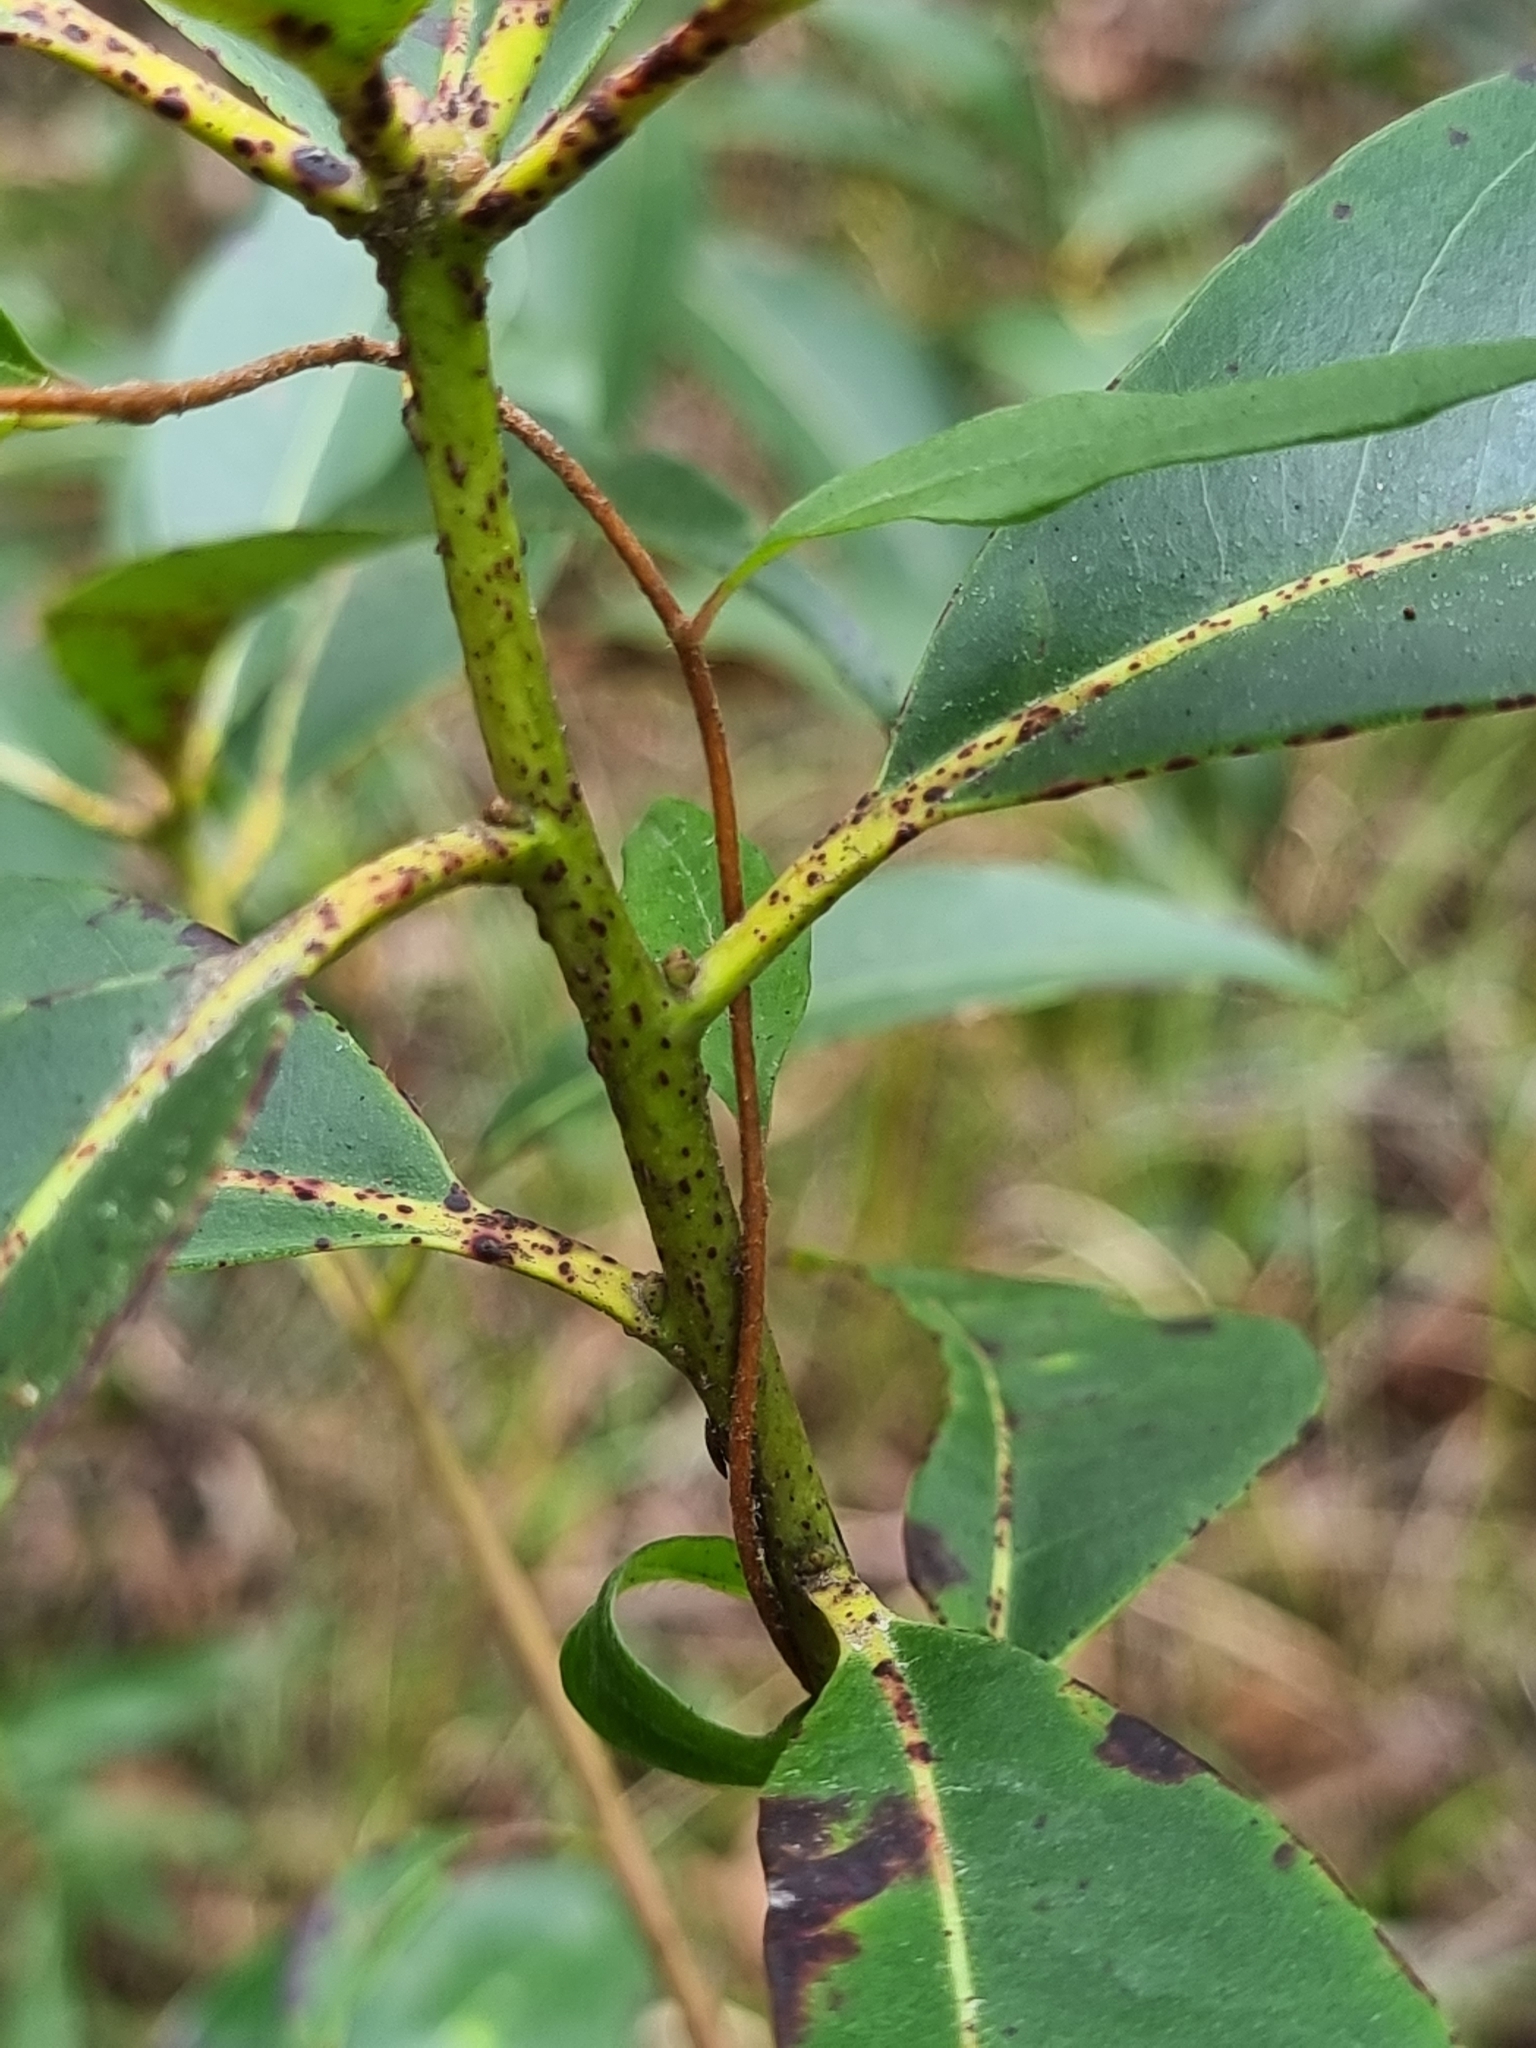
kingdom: Plantae
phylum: Tracheophyta
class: Magnoliopsida
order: Apiales
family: Pittosporaceae
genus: Billardiera
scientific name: Billardiera scandens
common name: Apple-berry
